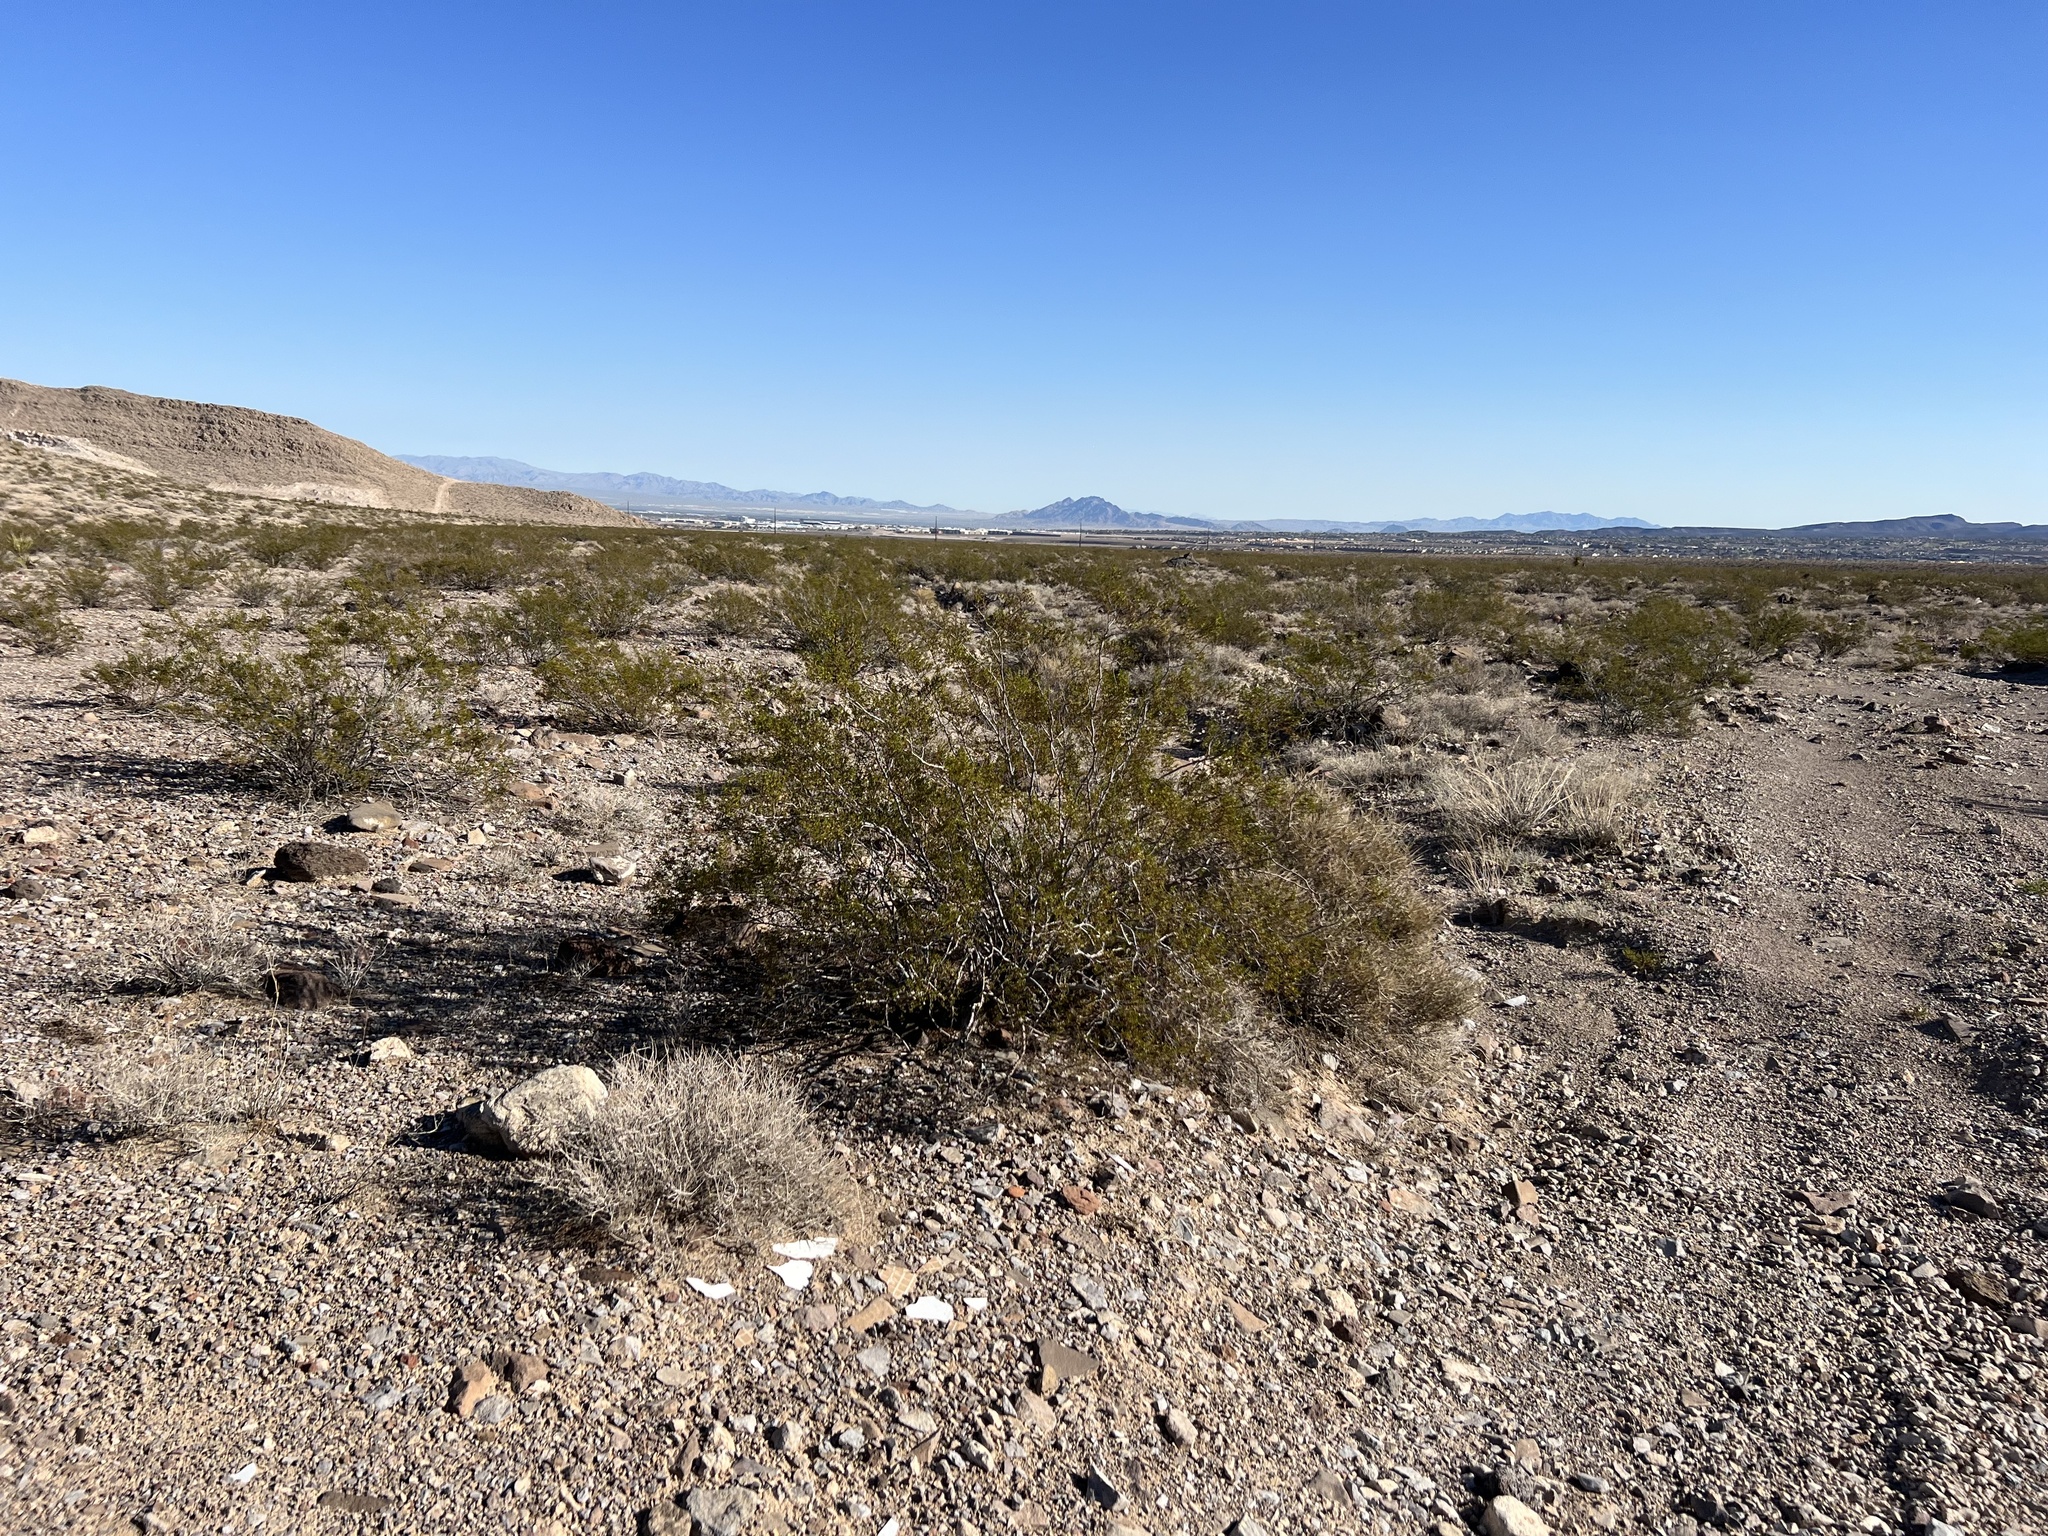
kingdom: Plantae
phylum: Tracheophyta
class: Magnoliopsida
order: Zygophyllales
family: Zygophyllaceae
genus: Larrea
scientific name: Larrea tridentata
